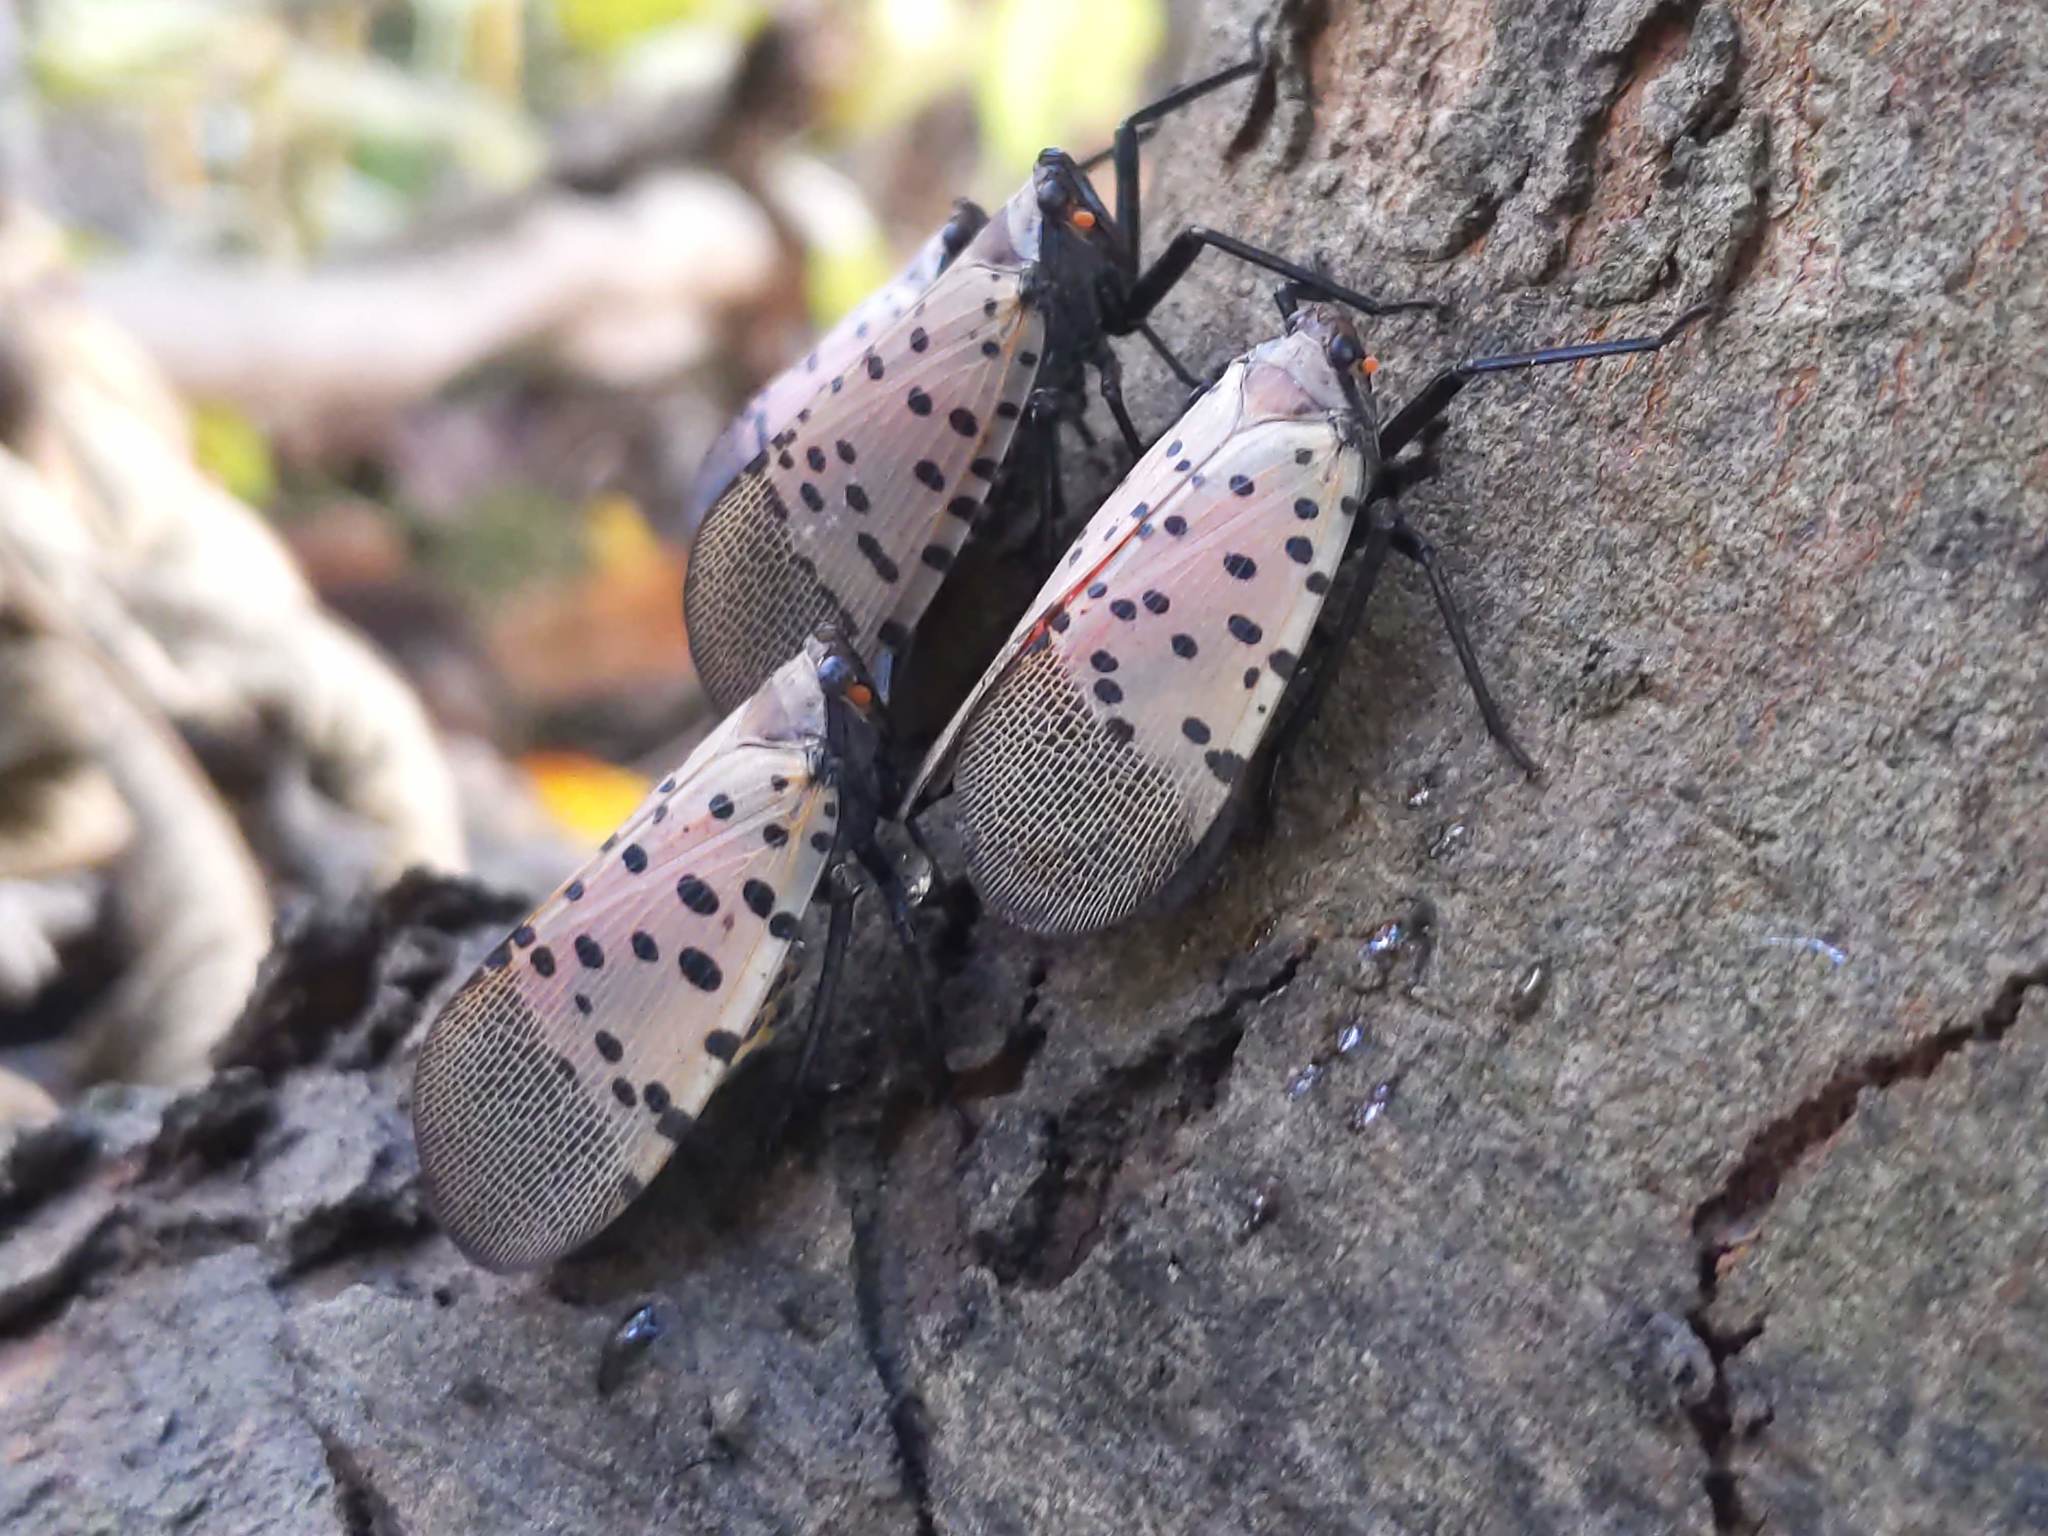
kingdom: Animalia
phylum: Arthropoda
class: Insecta
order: Hemiptera
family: Fulgoridae
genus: Lycorma
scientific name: Lycorma delicatula
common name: Spotted lanternfly
